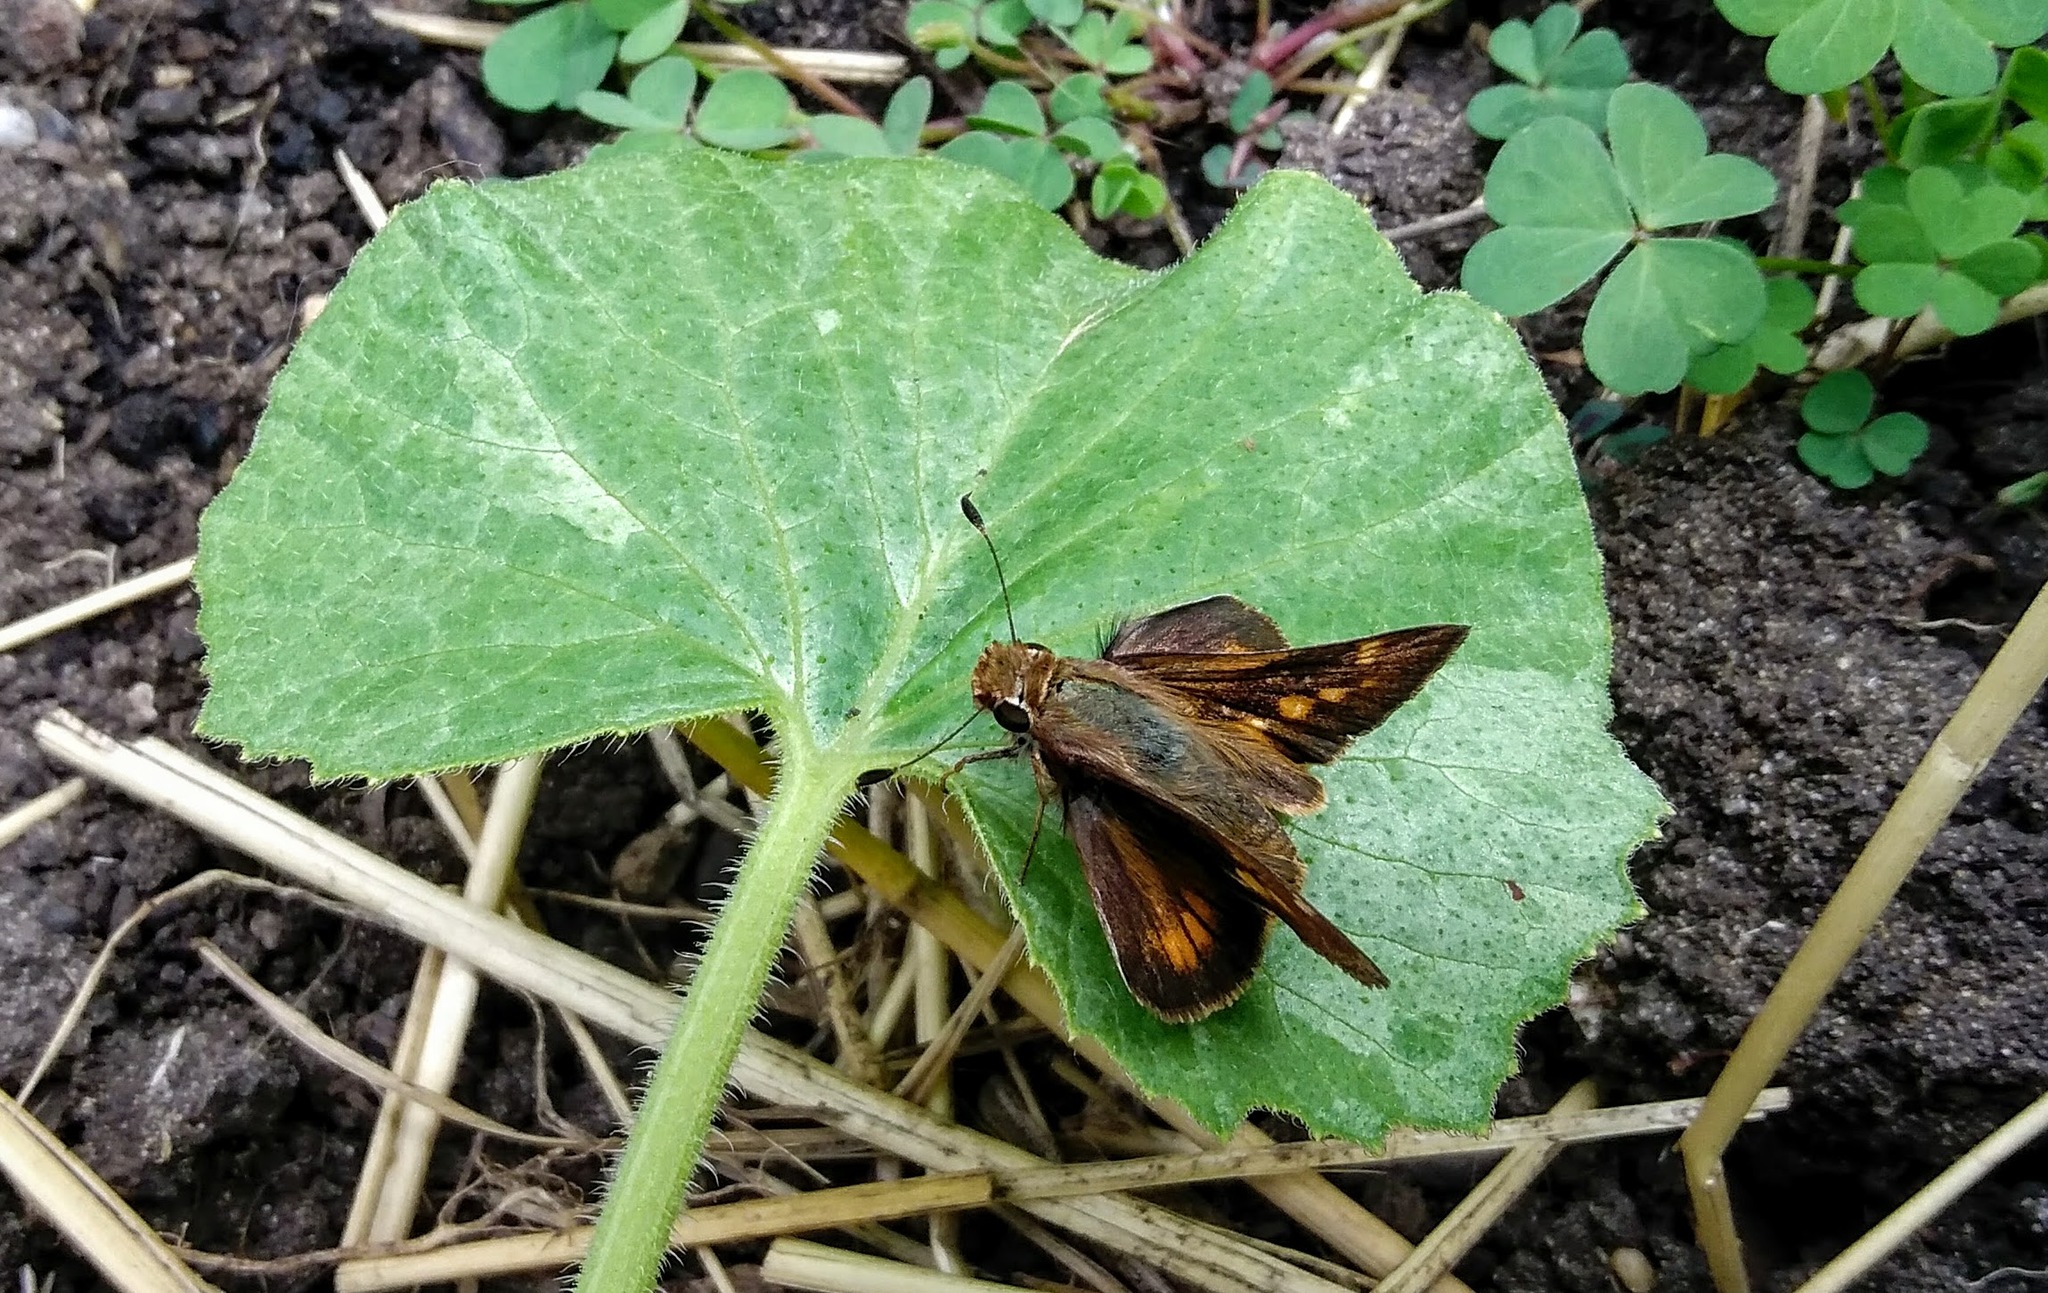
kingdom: Animalia
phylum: Arthropoda
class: Insecta
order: Lepidoptera
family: Hesperiidae
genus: Lon
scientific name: Lon melane
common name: Umber skipper
